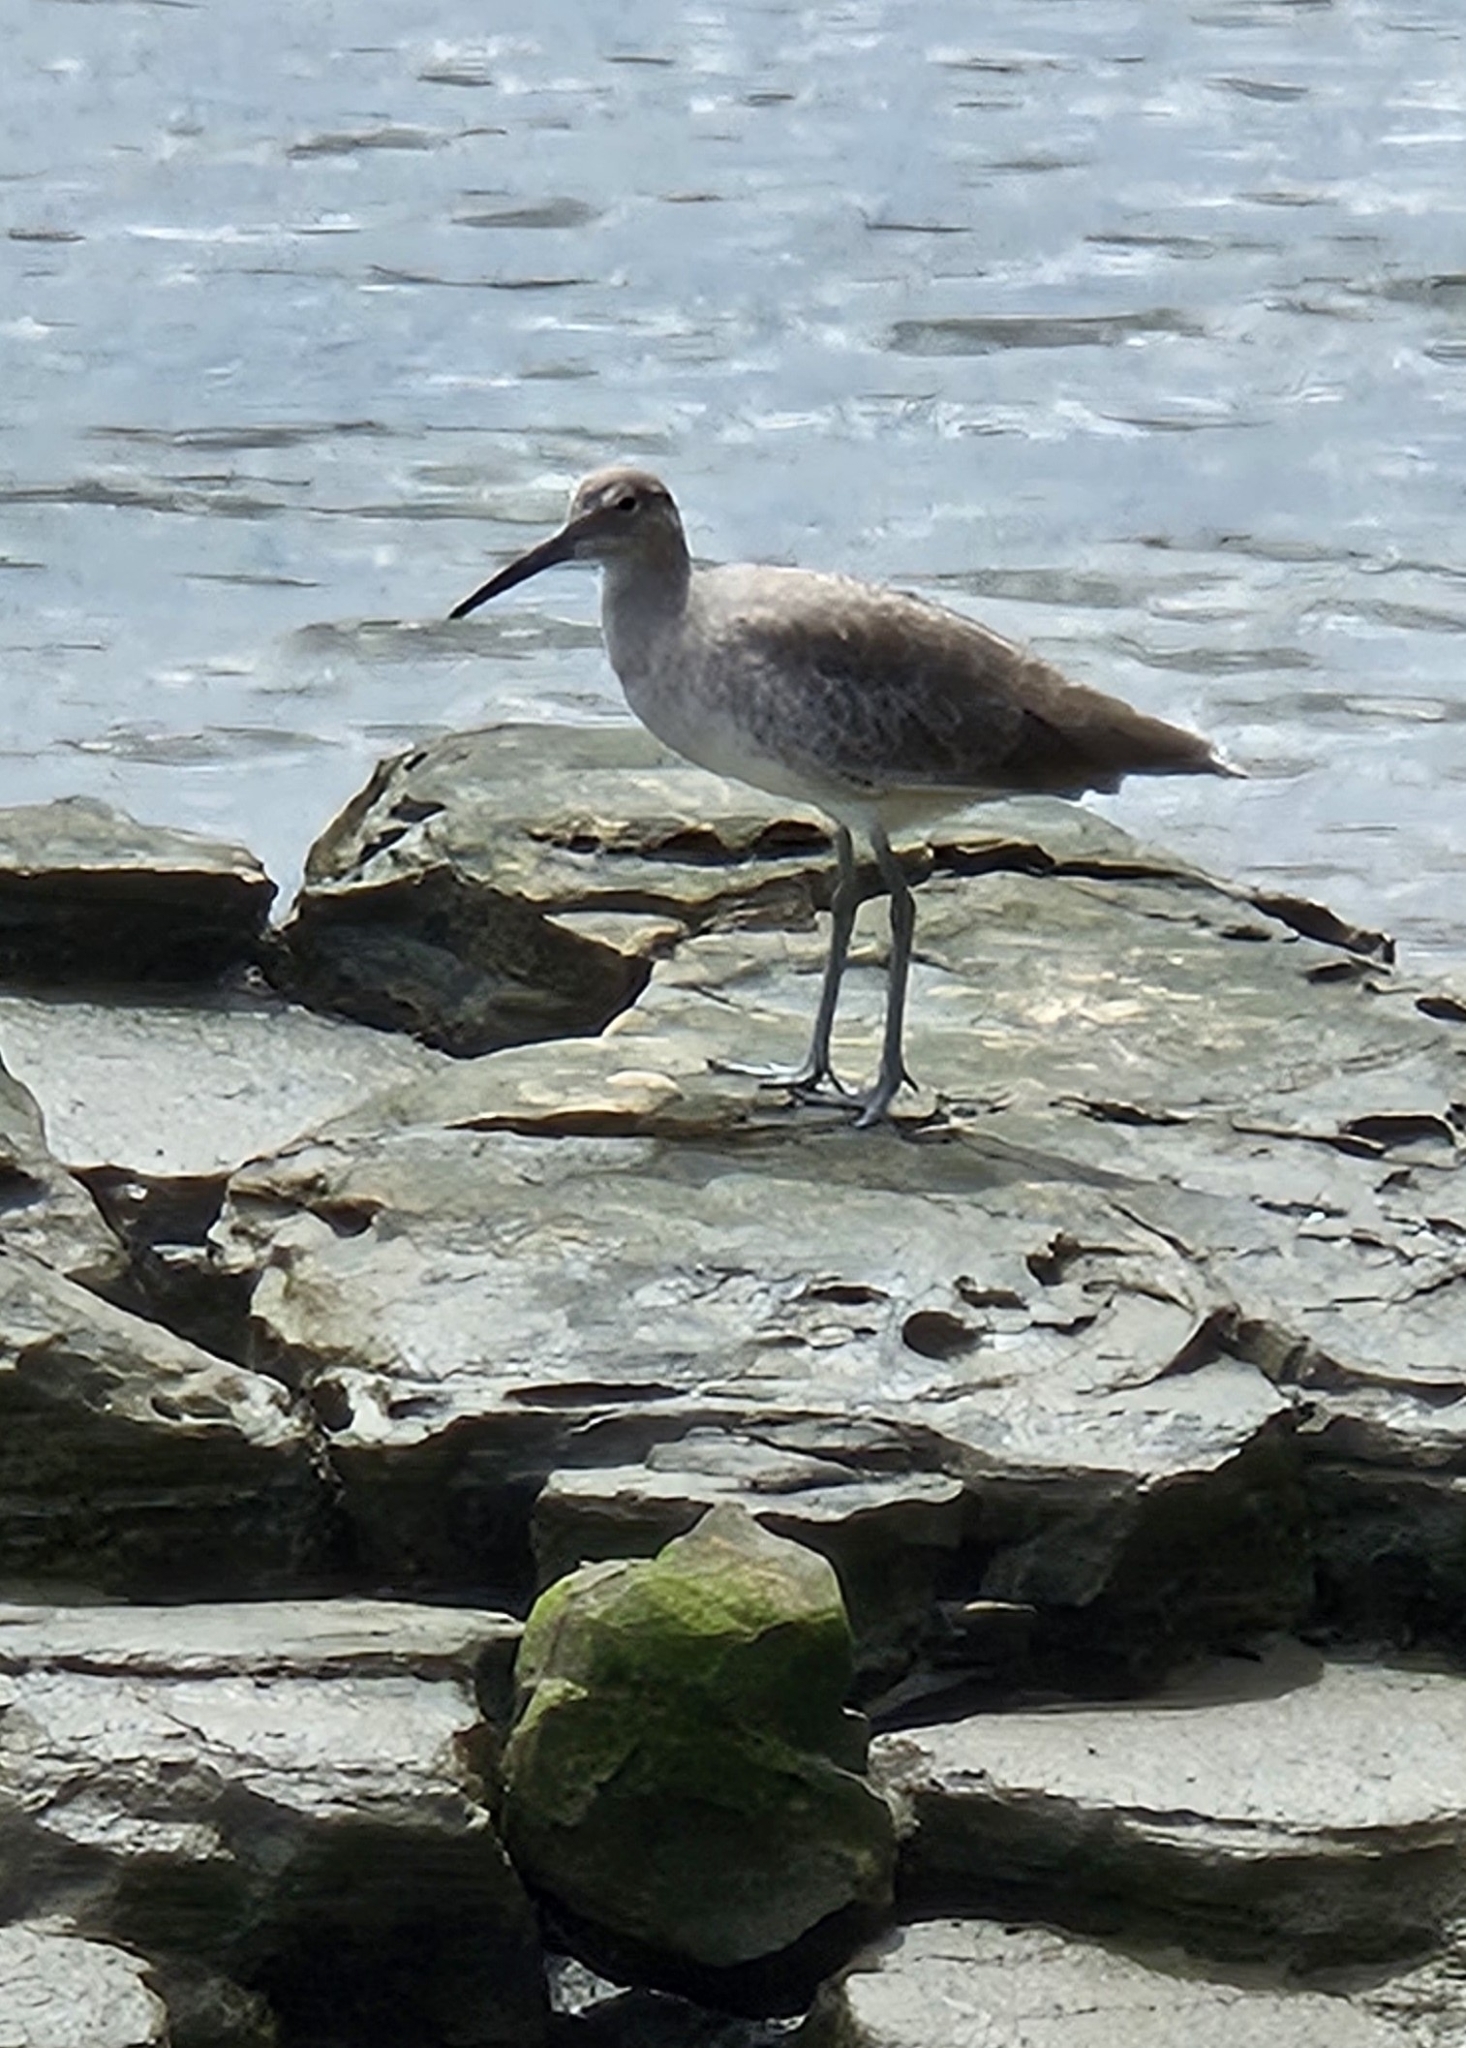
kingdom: Animalia
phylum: Chordata
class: Aves
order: Charadriiformes
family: Scolopacidae
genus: Tringa
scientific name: Tringa semipalmata
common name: Willet
